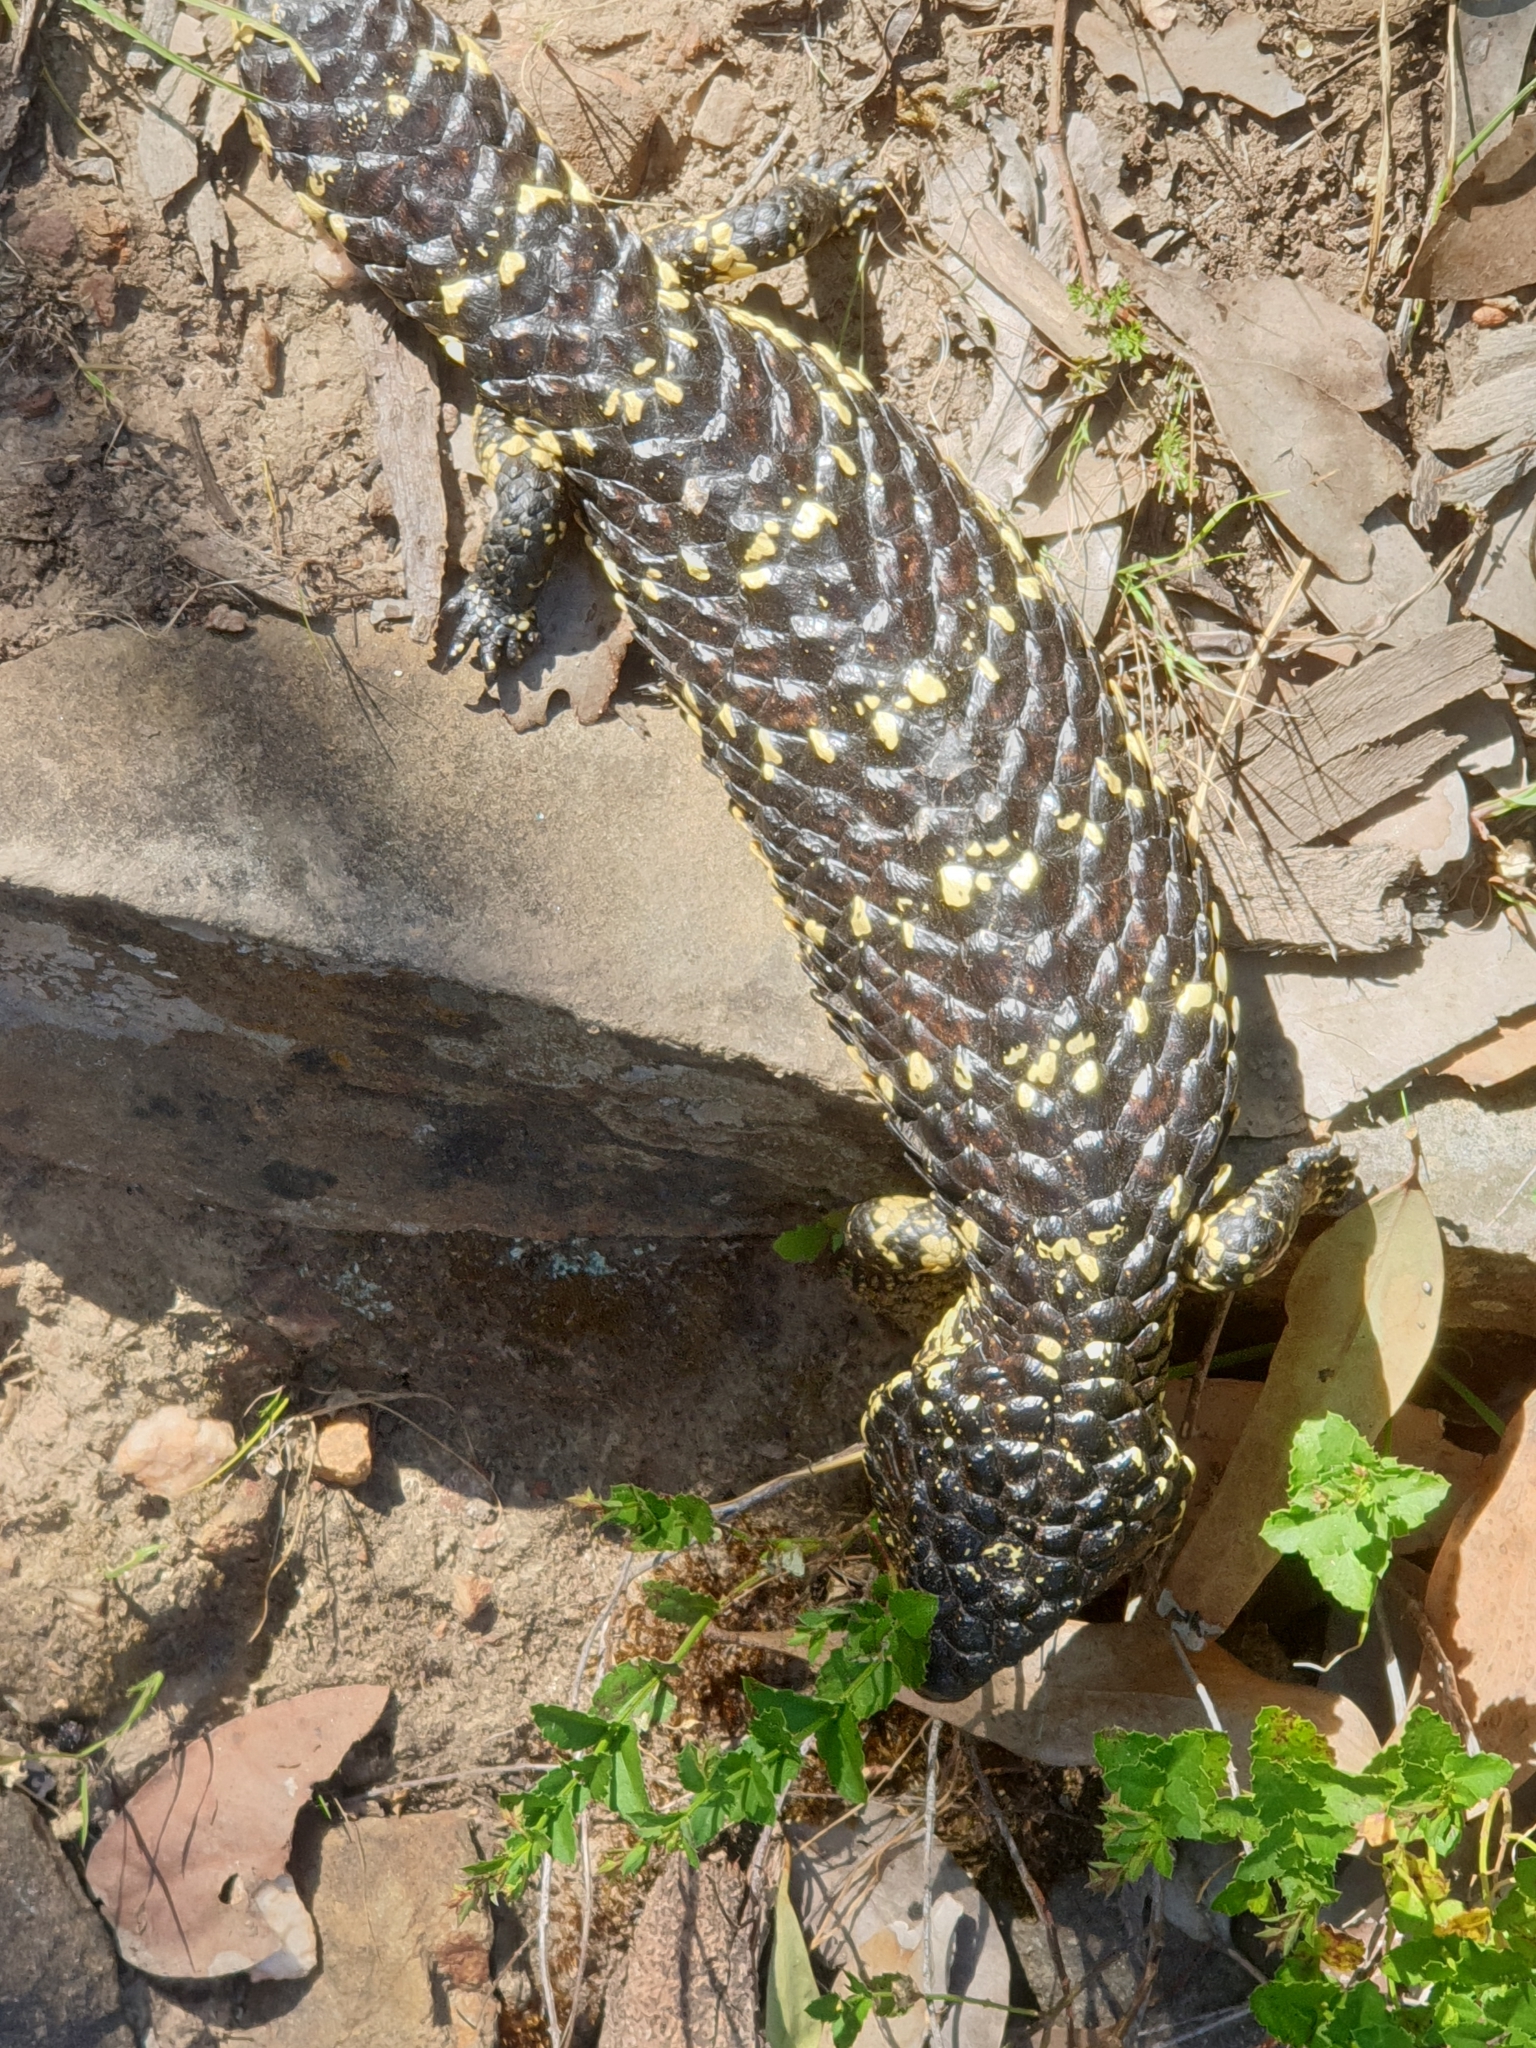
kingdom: Animalia
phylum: Chordata
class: Squamata
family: Scincidae
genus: Tiliqua
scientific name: Tiliqua rugosa
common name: Pinecone lizard
